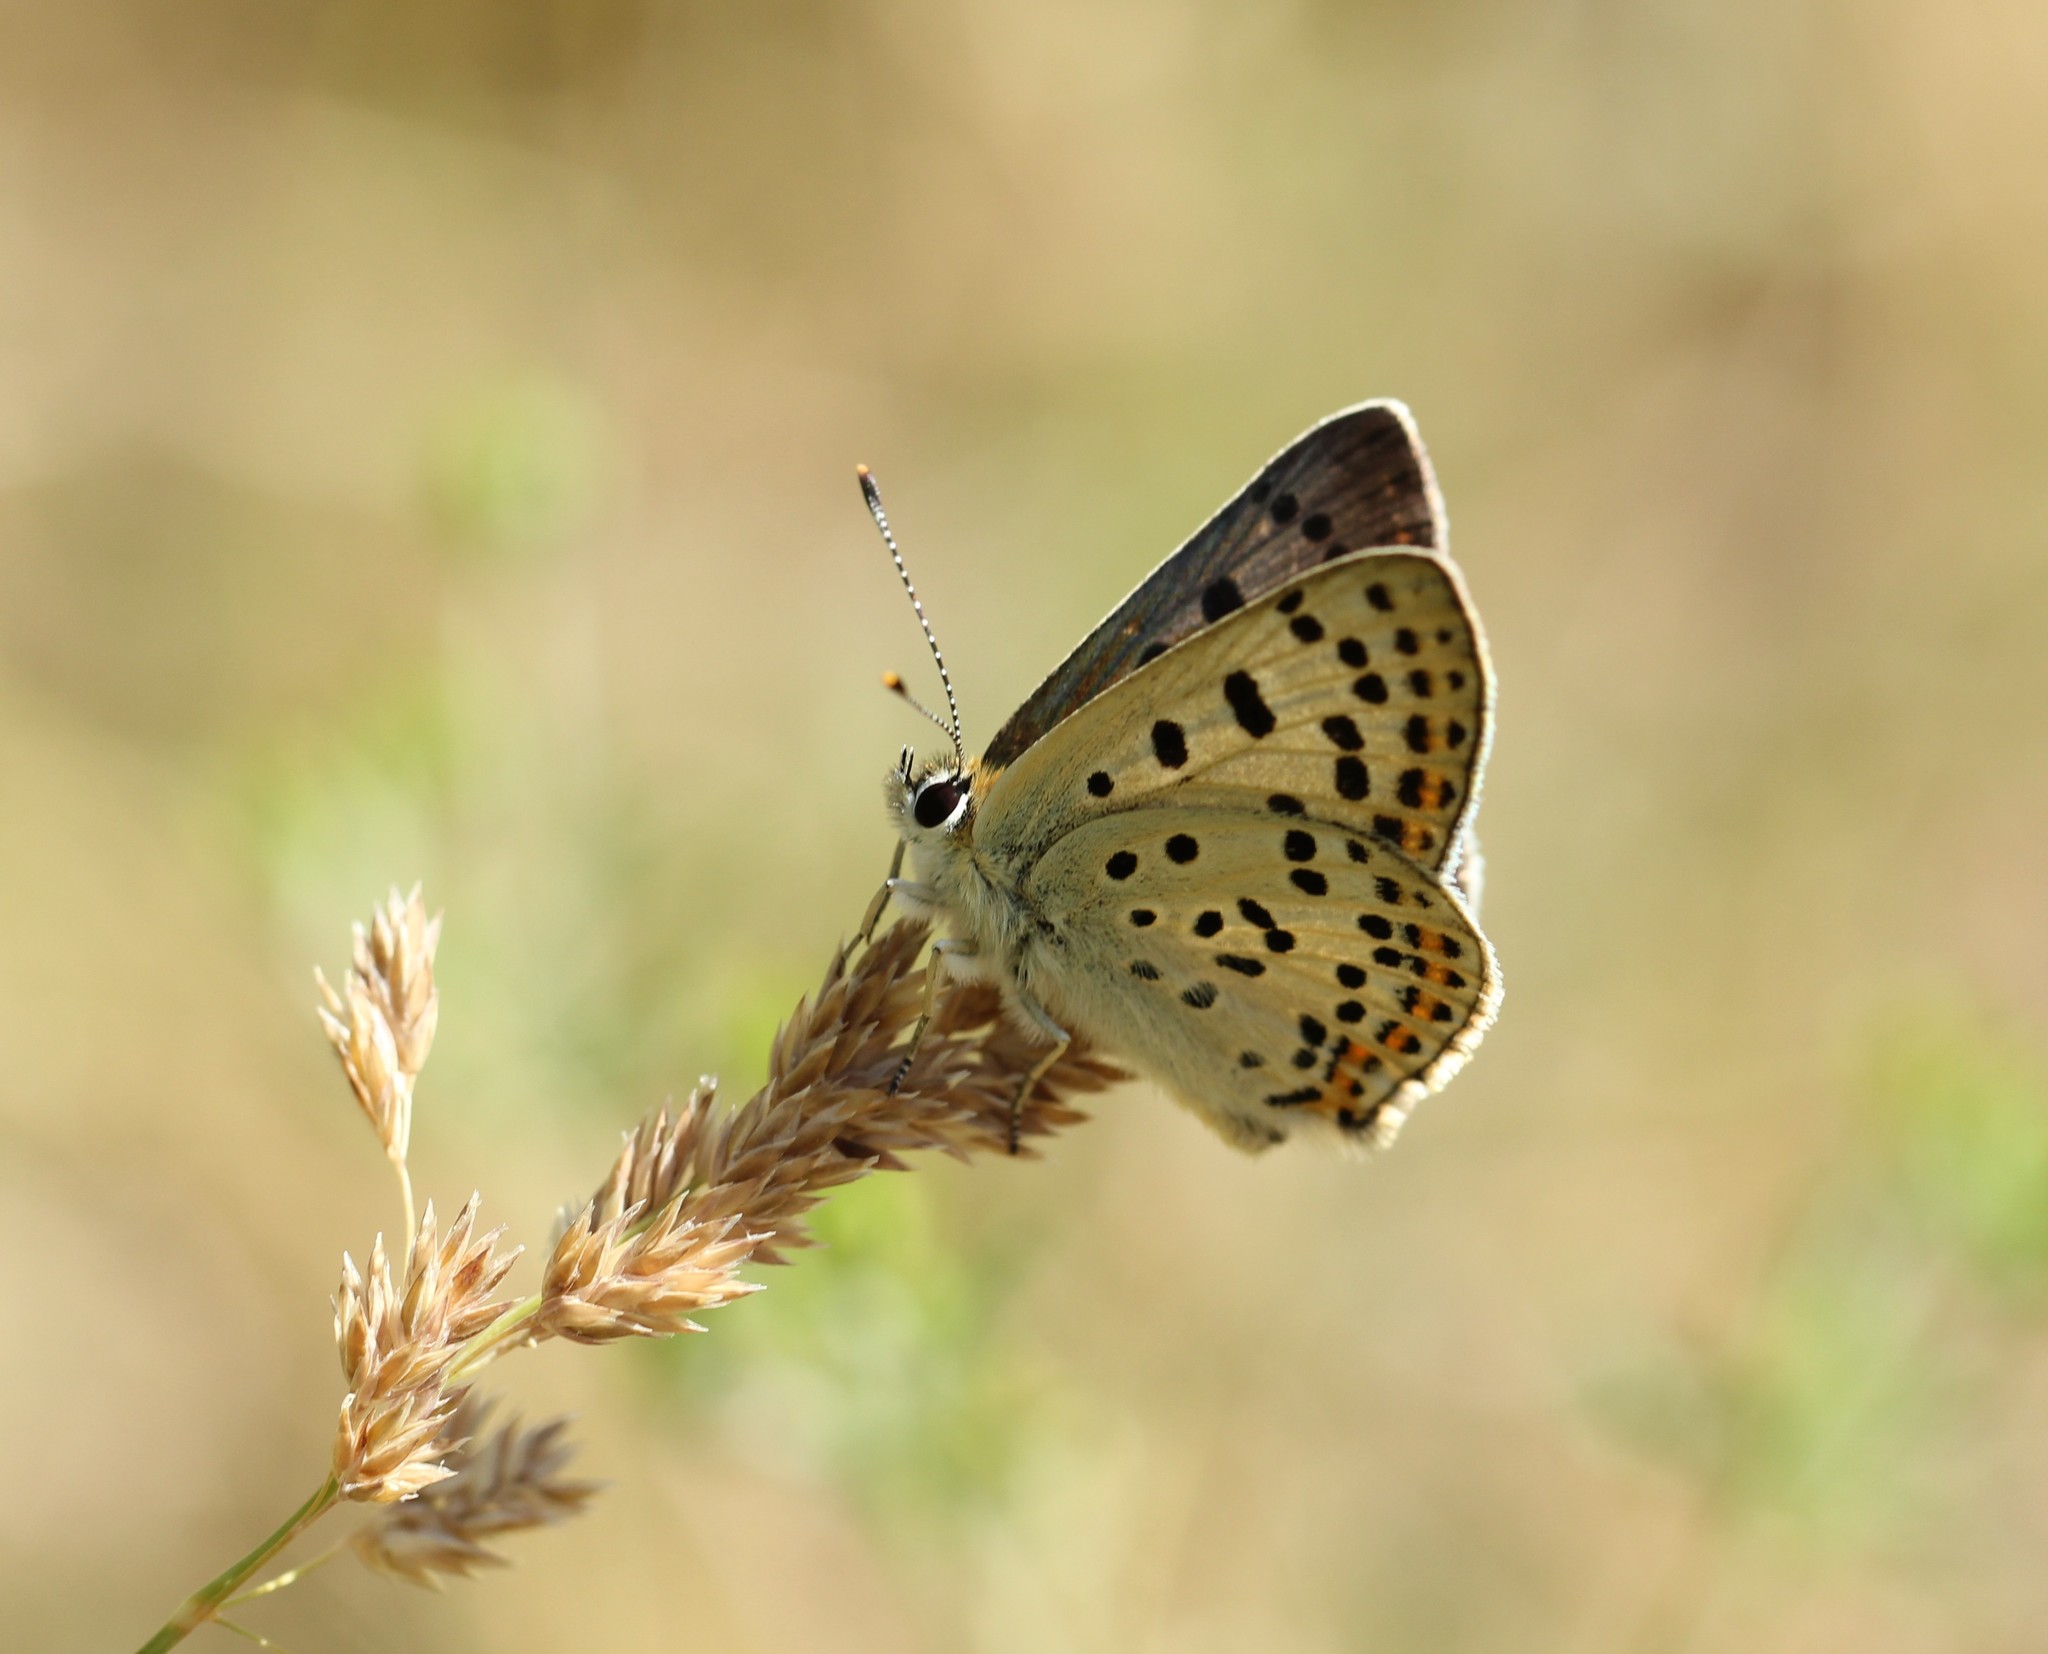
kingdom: Animalia
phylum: Arthropoda
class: Insecta
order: Lepidoptera
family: Lycaenidae
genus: Loweia
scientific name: Loweia tityrus
